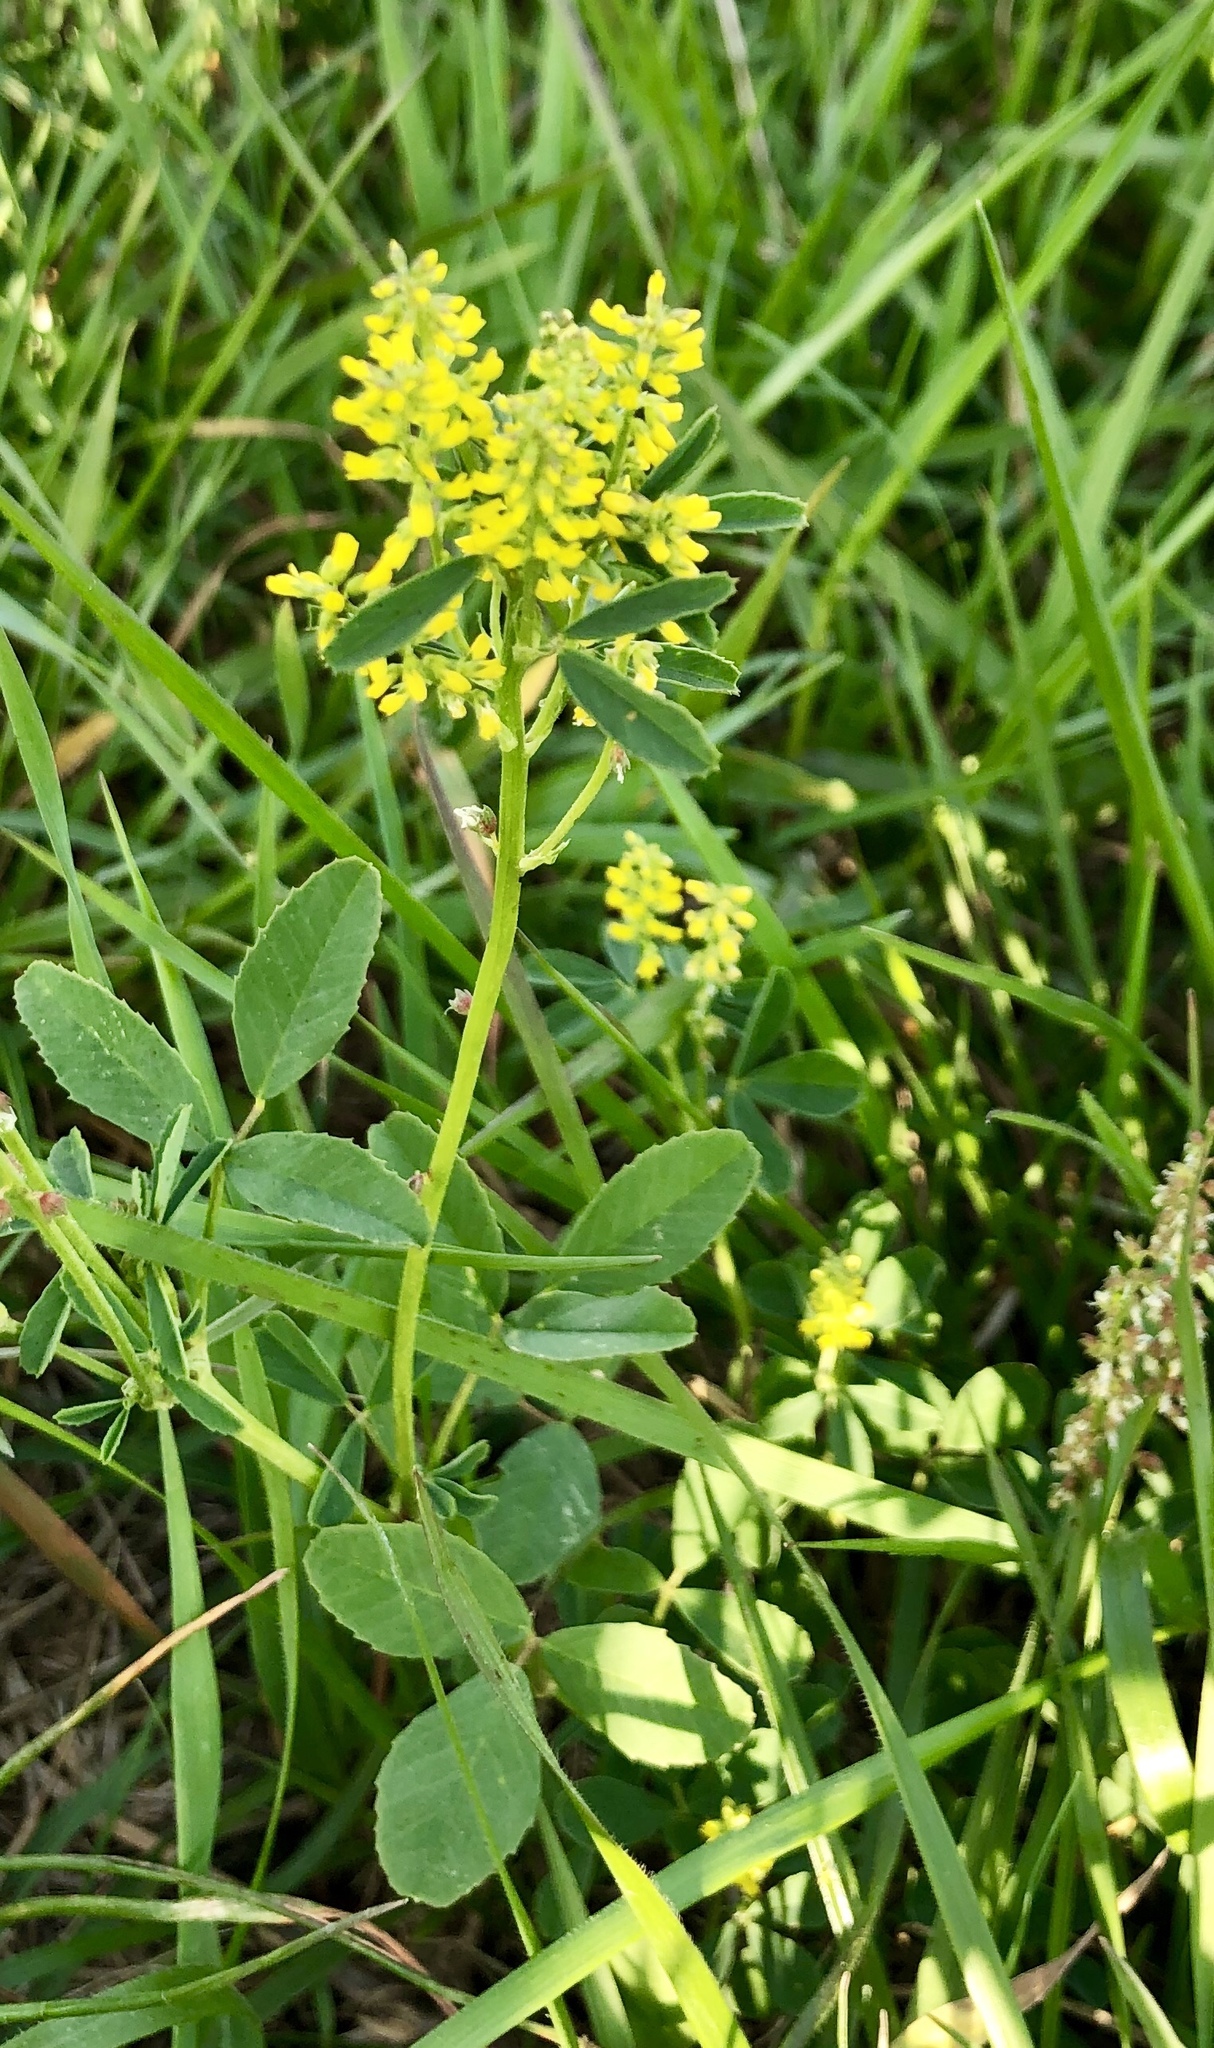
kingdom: Plantae
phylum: Tracheophyta
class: Magnoliopsida
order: Fabales
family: Fabaceae
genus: Melilotus
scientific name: Melilotus indicus
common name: Small melilot
